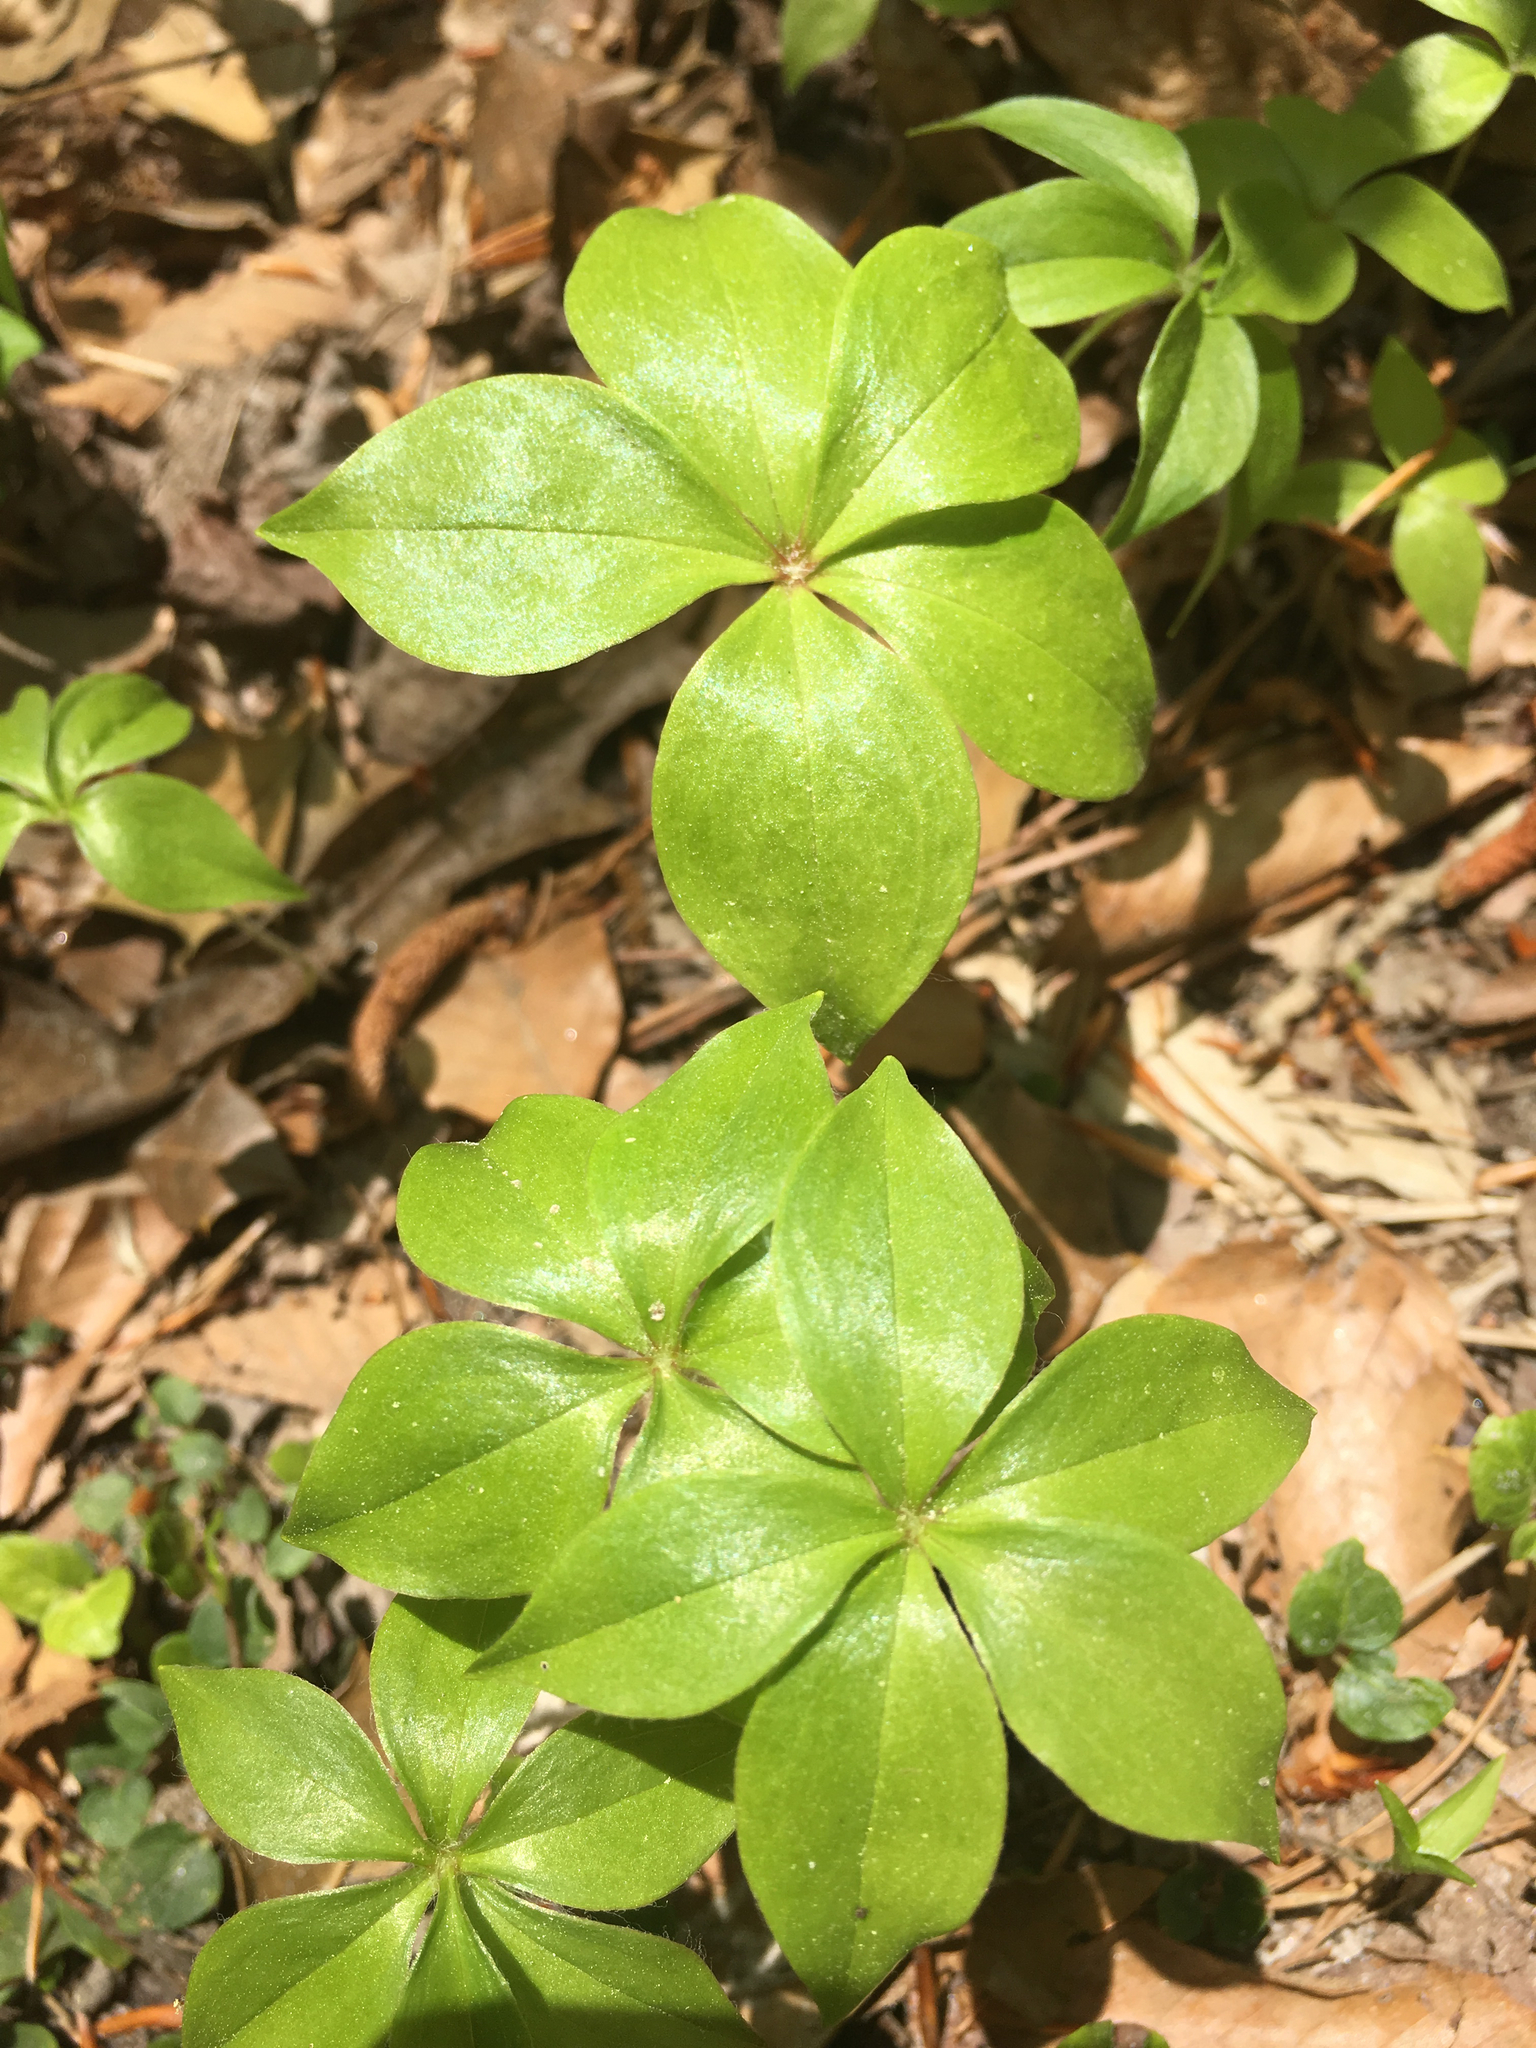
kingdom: Plantae
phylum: Tracheophyta
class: Liliopsida
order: Liliales
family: Liliaceae
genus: Medeola
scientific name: Medeola virginiana
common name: Indian cucumber-root
